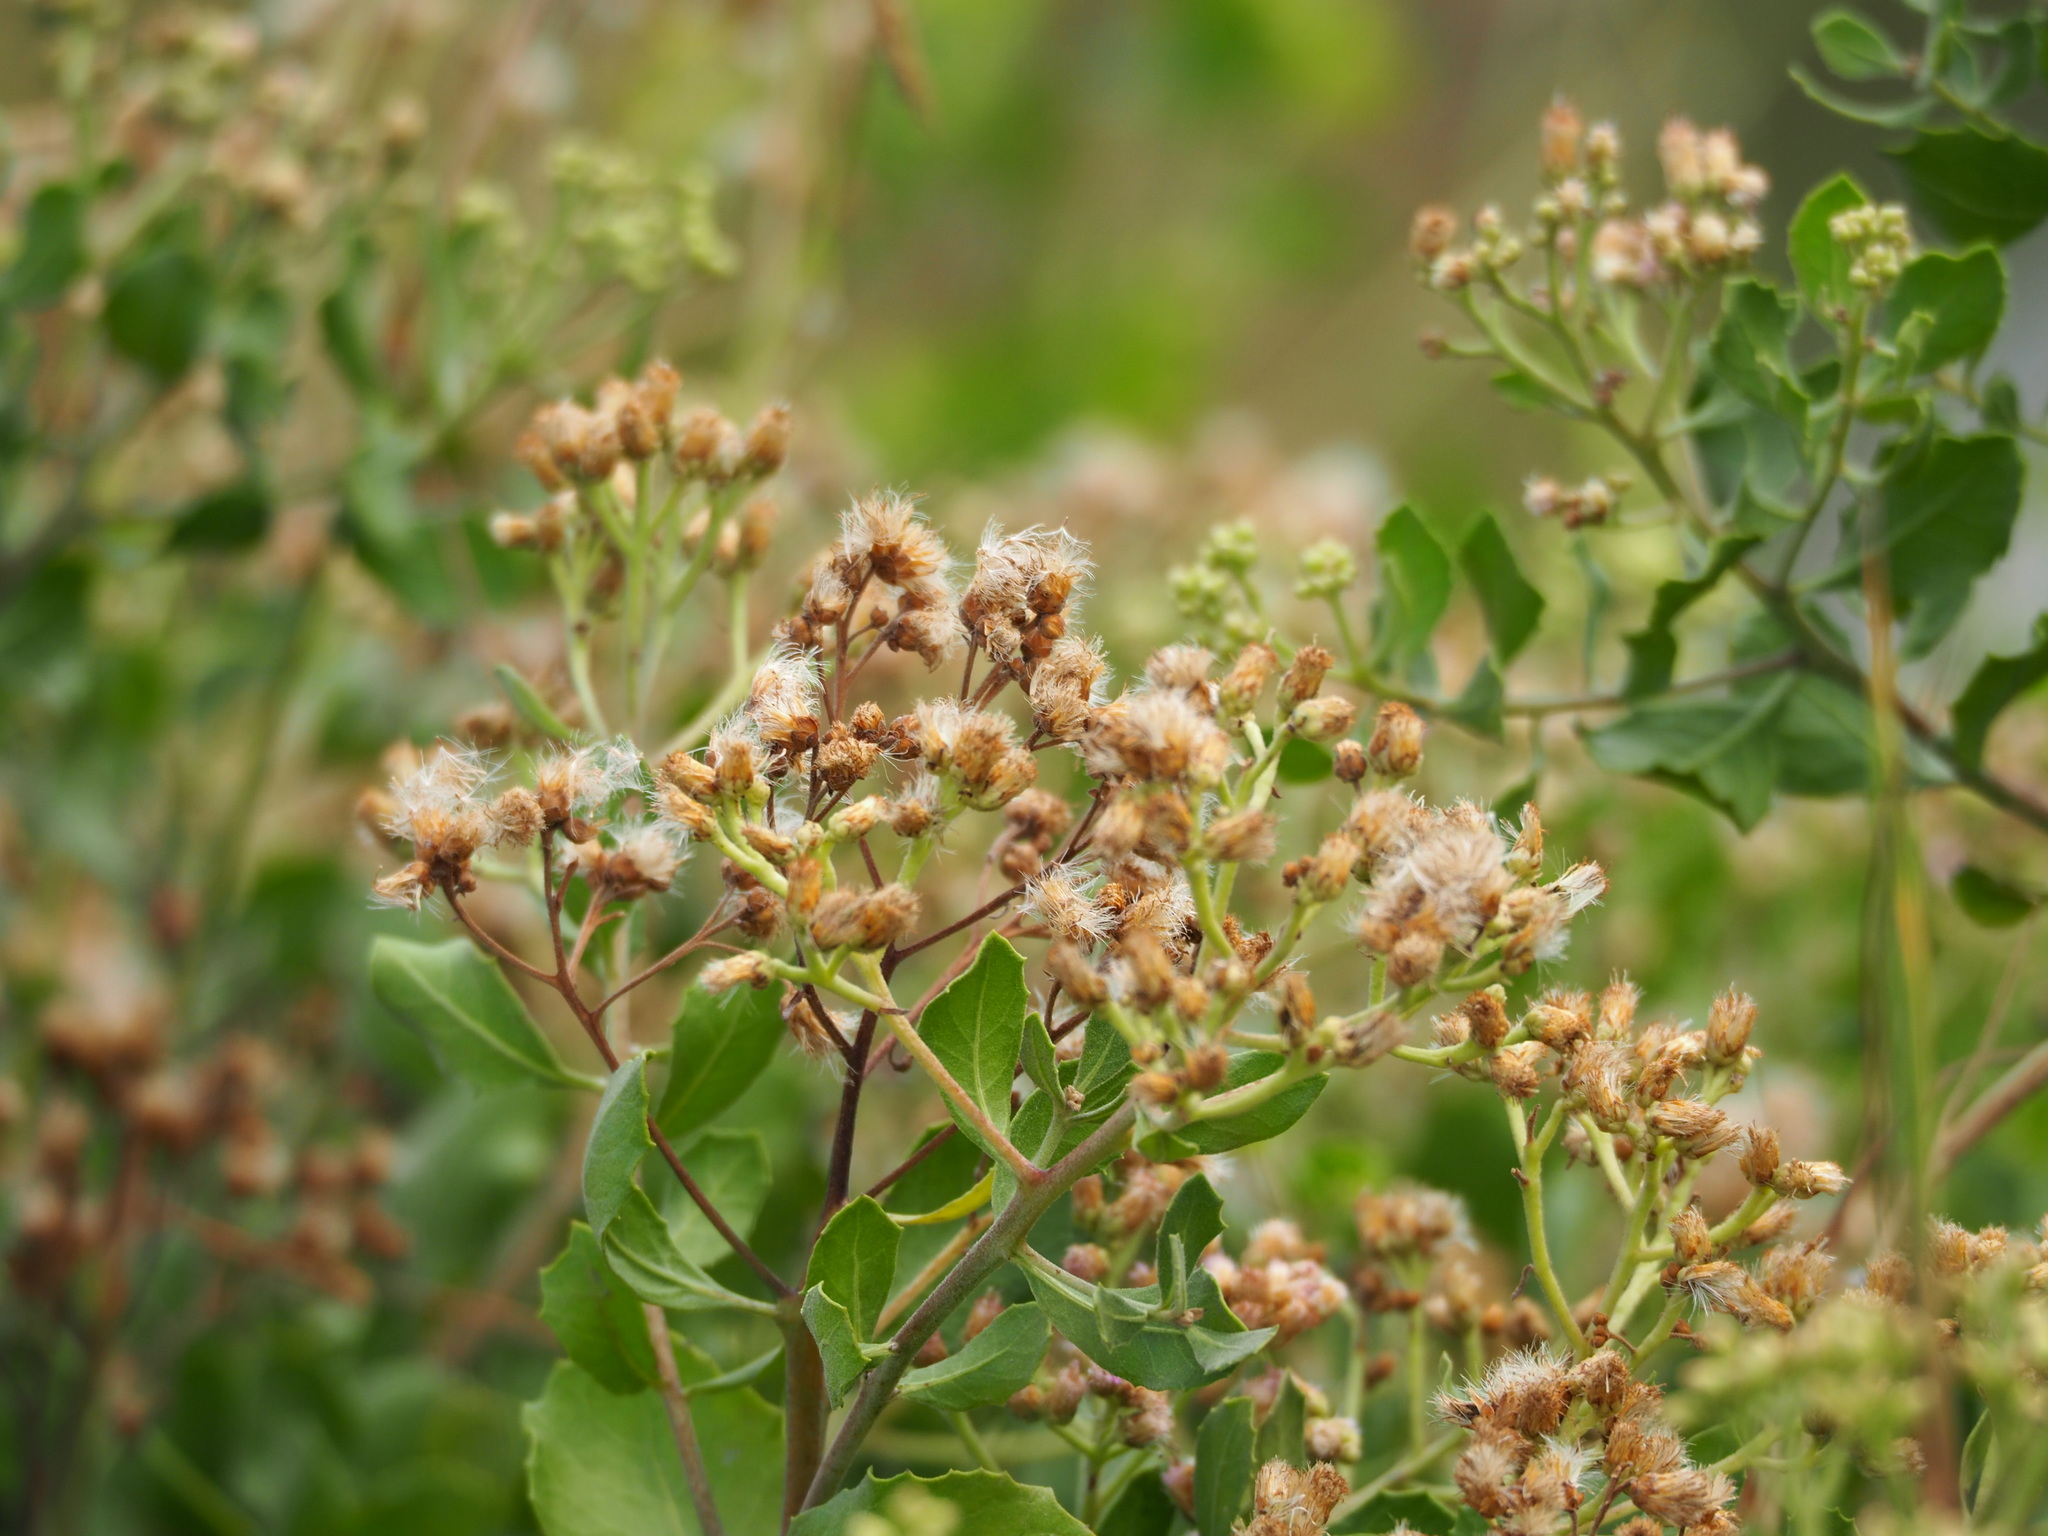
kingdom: Plantae
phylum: Tracheophyta
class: Magnoliopsida
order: Asterales
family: Asteraceae
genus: Pluchea
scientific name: Pluchea indica
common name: Indian fleabane
